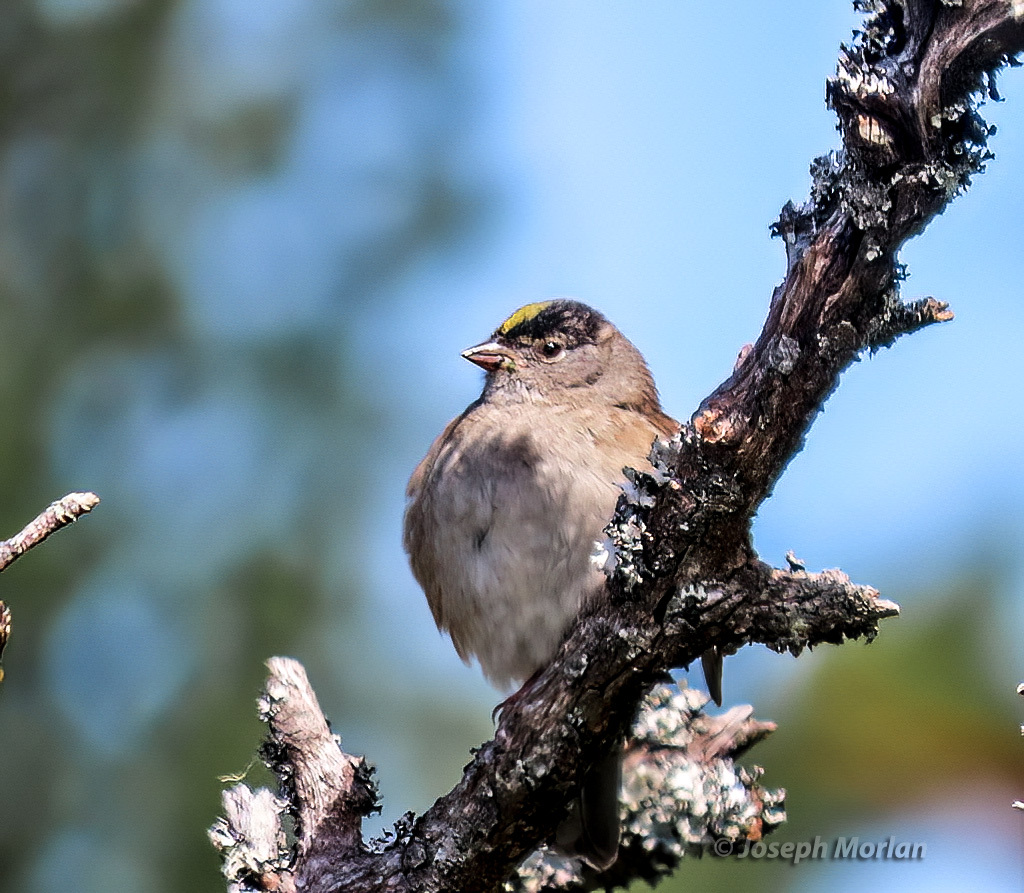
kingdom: Animalia
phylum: Chordata
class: Aves
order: Passeriformes
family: Passerellidae
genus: Zonotrichia
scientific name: Zonotrichia atricapilla
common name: Golden-crowned sparrow
